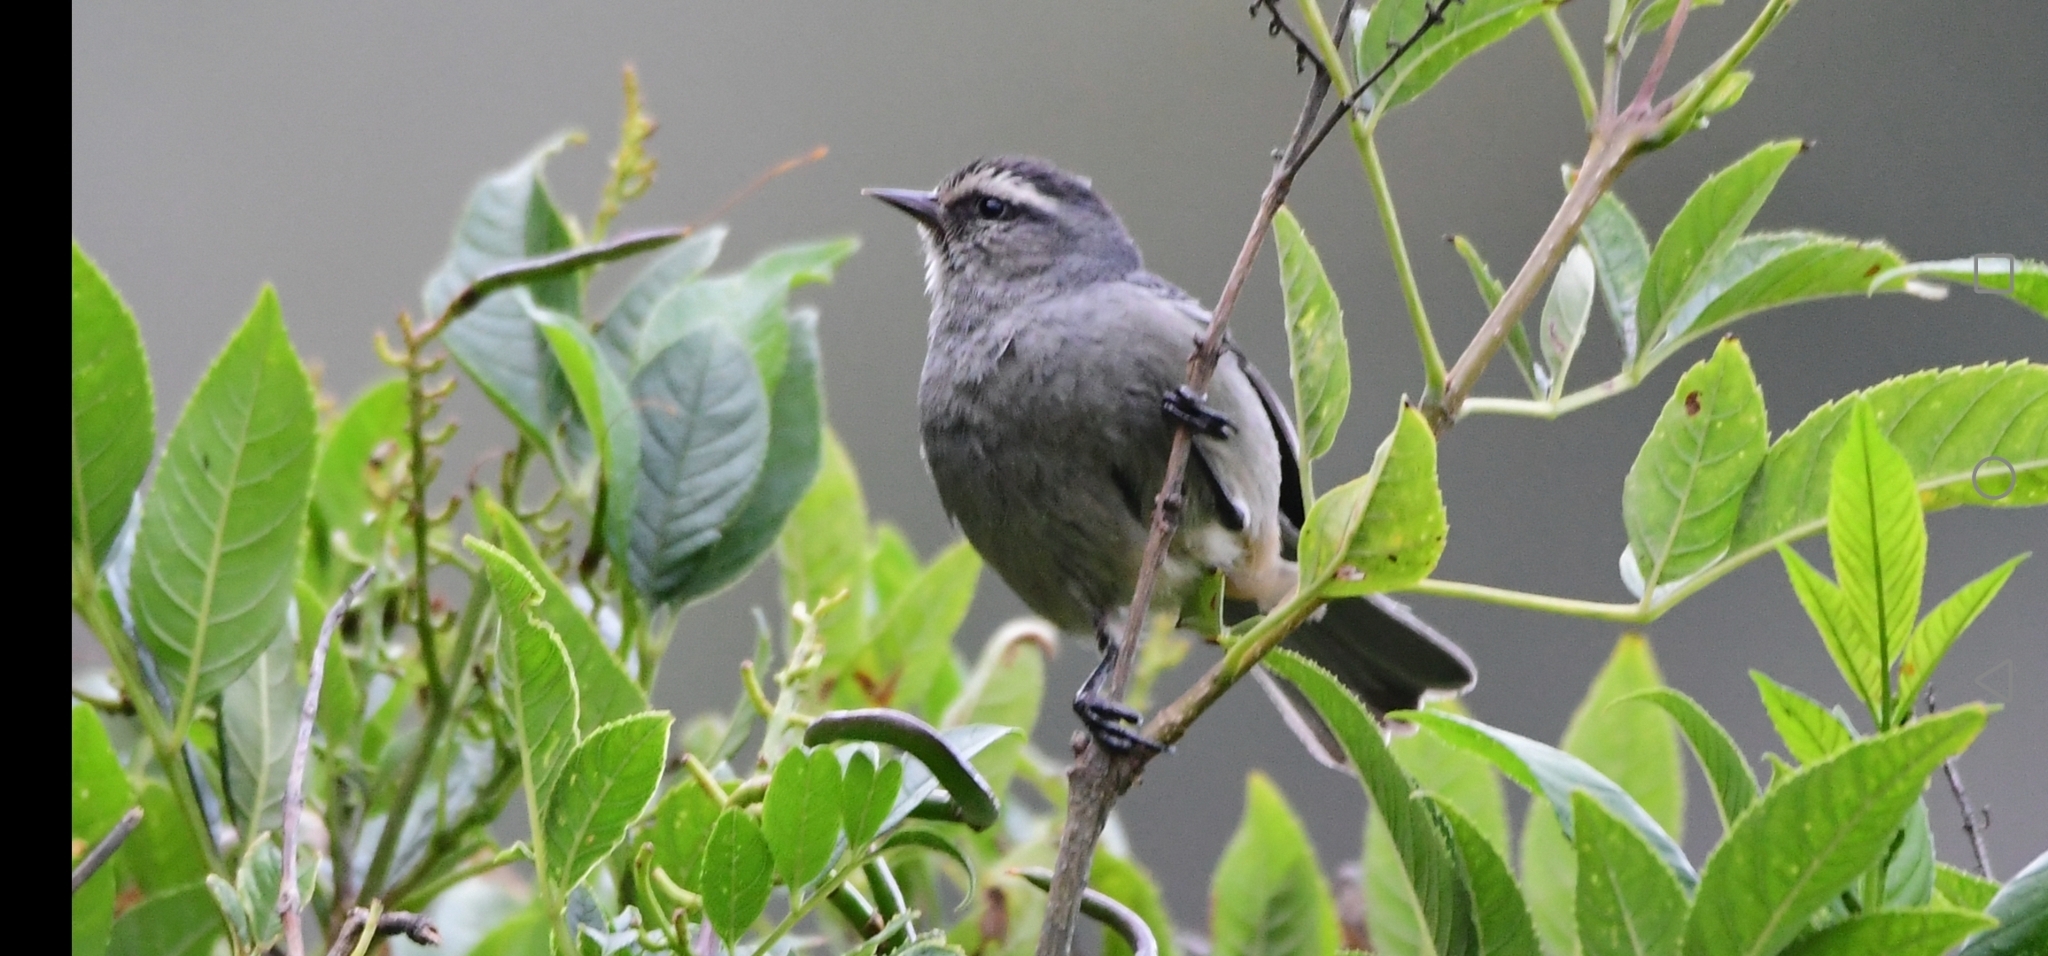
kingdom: Animalia
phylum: Chordata
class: Aves
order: Passeriformes
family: Thraupidae
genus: Conirostrum
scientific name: Conirostrum cinereum
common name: Cinereous conebill
